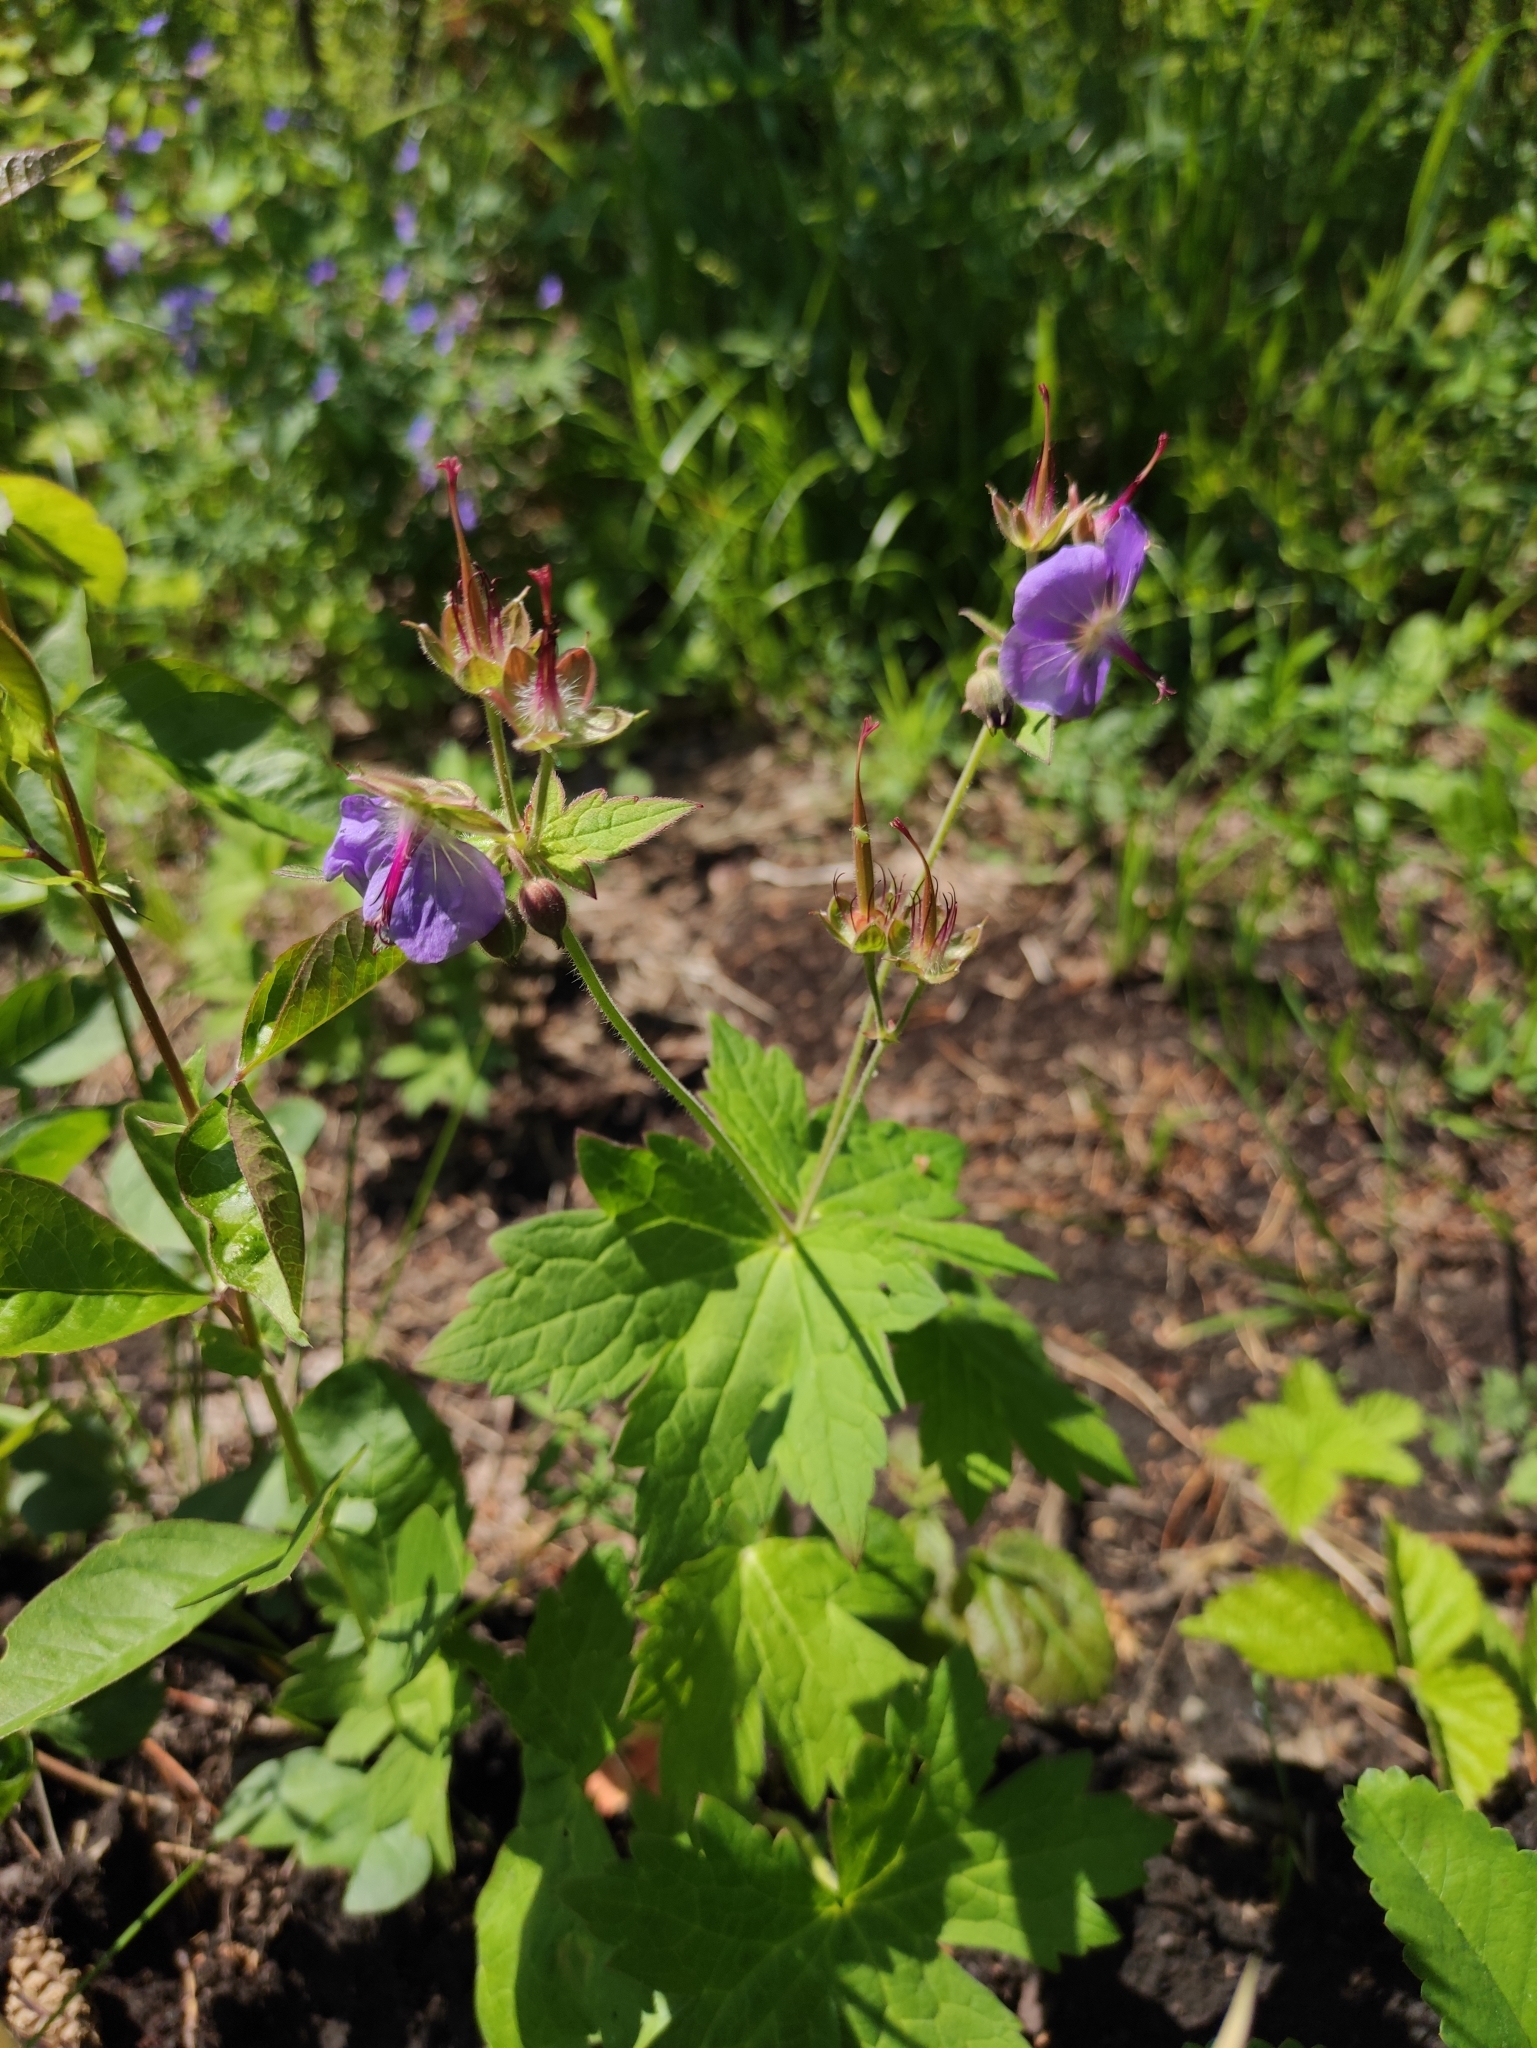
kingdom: Plantae
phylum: Tracheophyta
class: Magnoliopsida
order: Geraniales
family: Geraniaceae
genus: Geranium
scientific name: Geranium platyanthum
